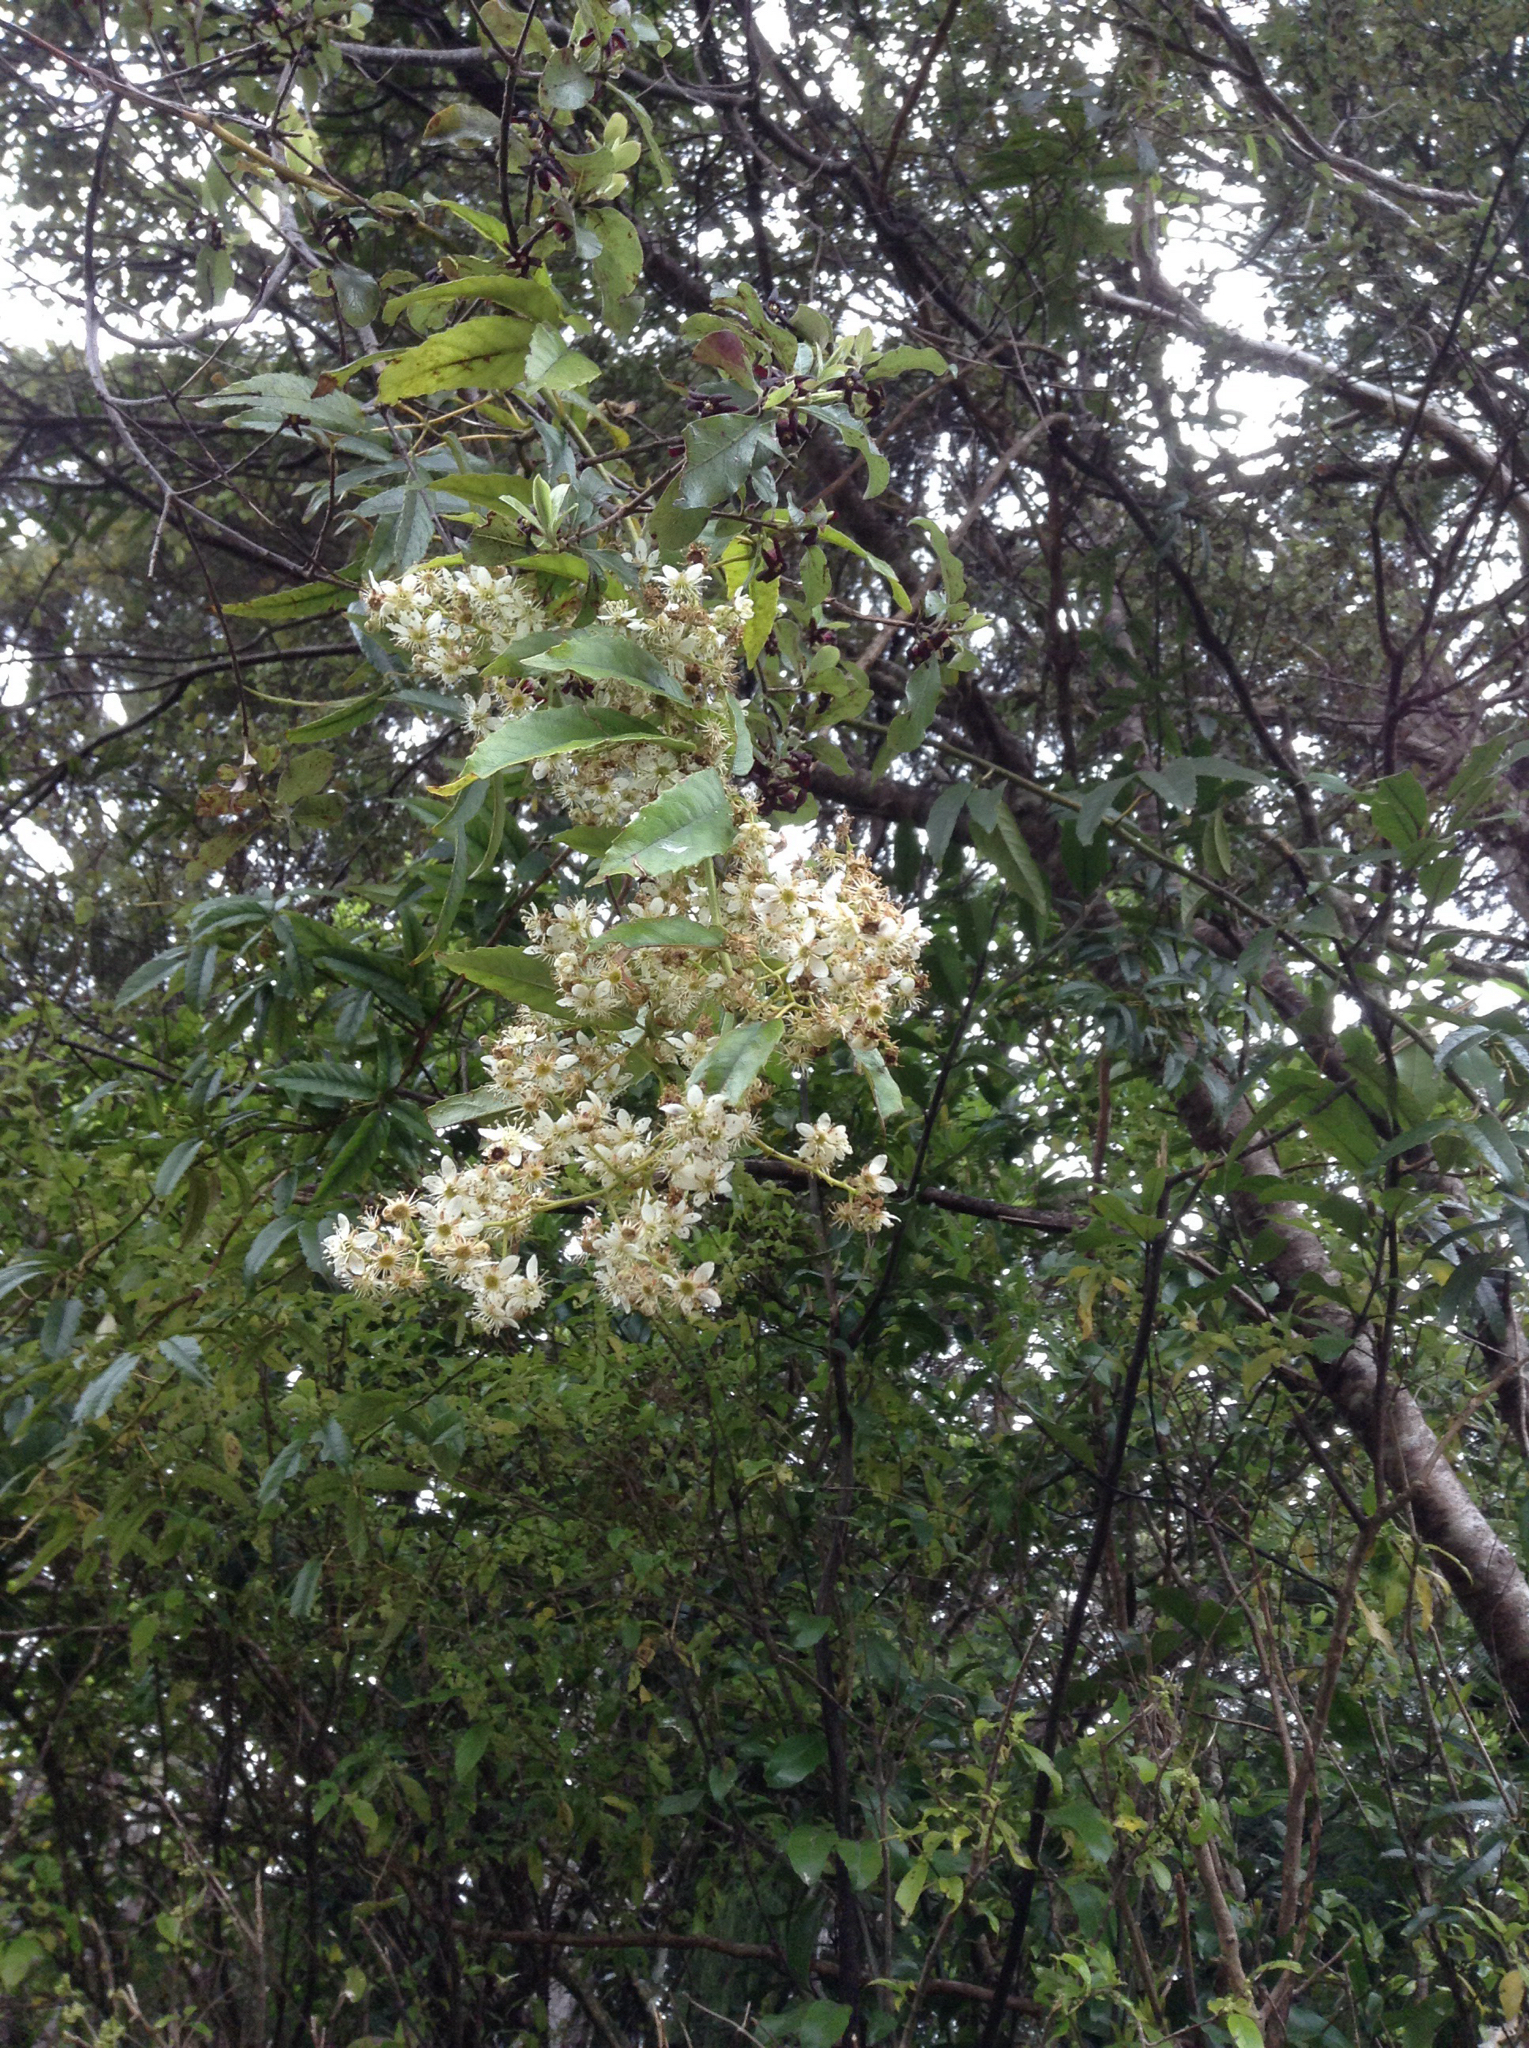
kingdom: Plantae
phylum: Tracheophyta
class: Magnoliopsida
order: Rosales
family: Rosaceae
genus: Rubus
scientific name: Rubus cissoides
